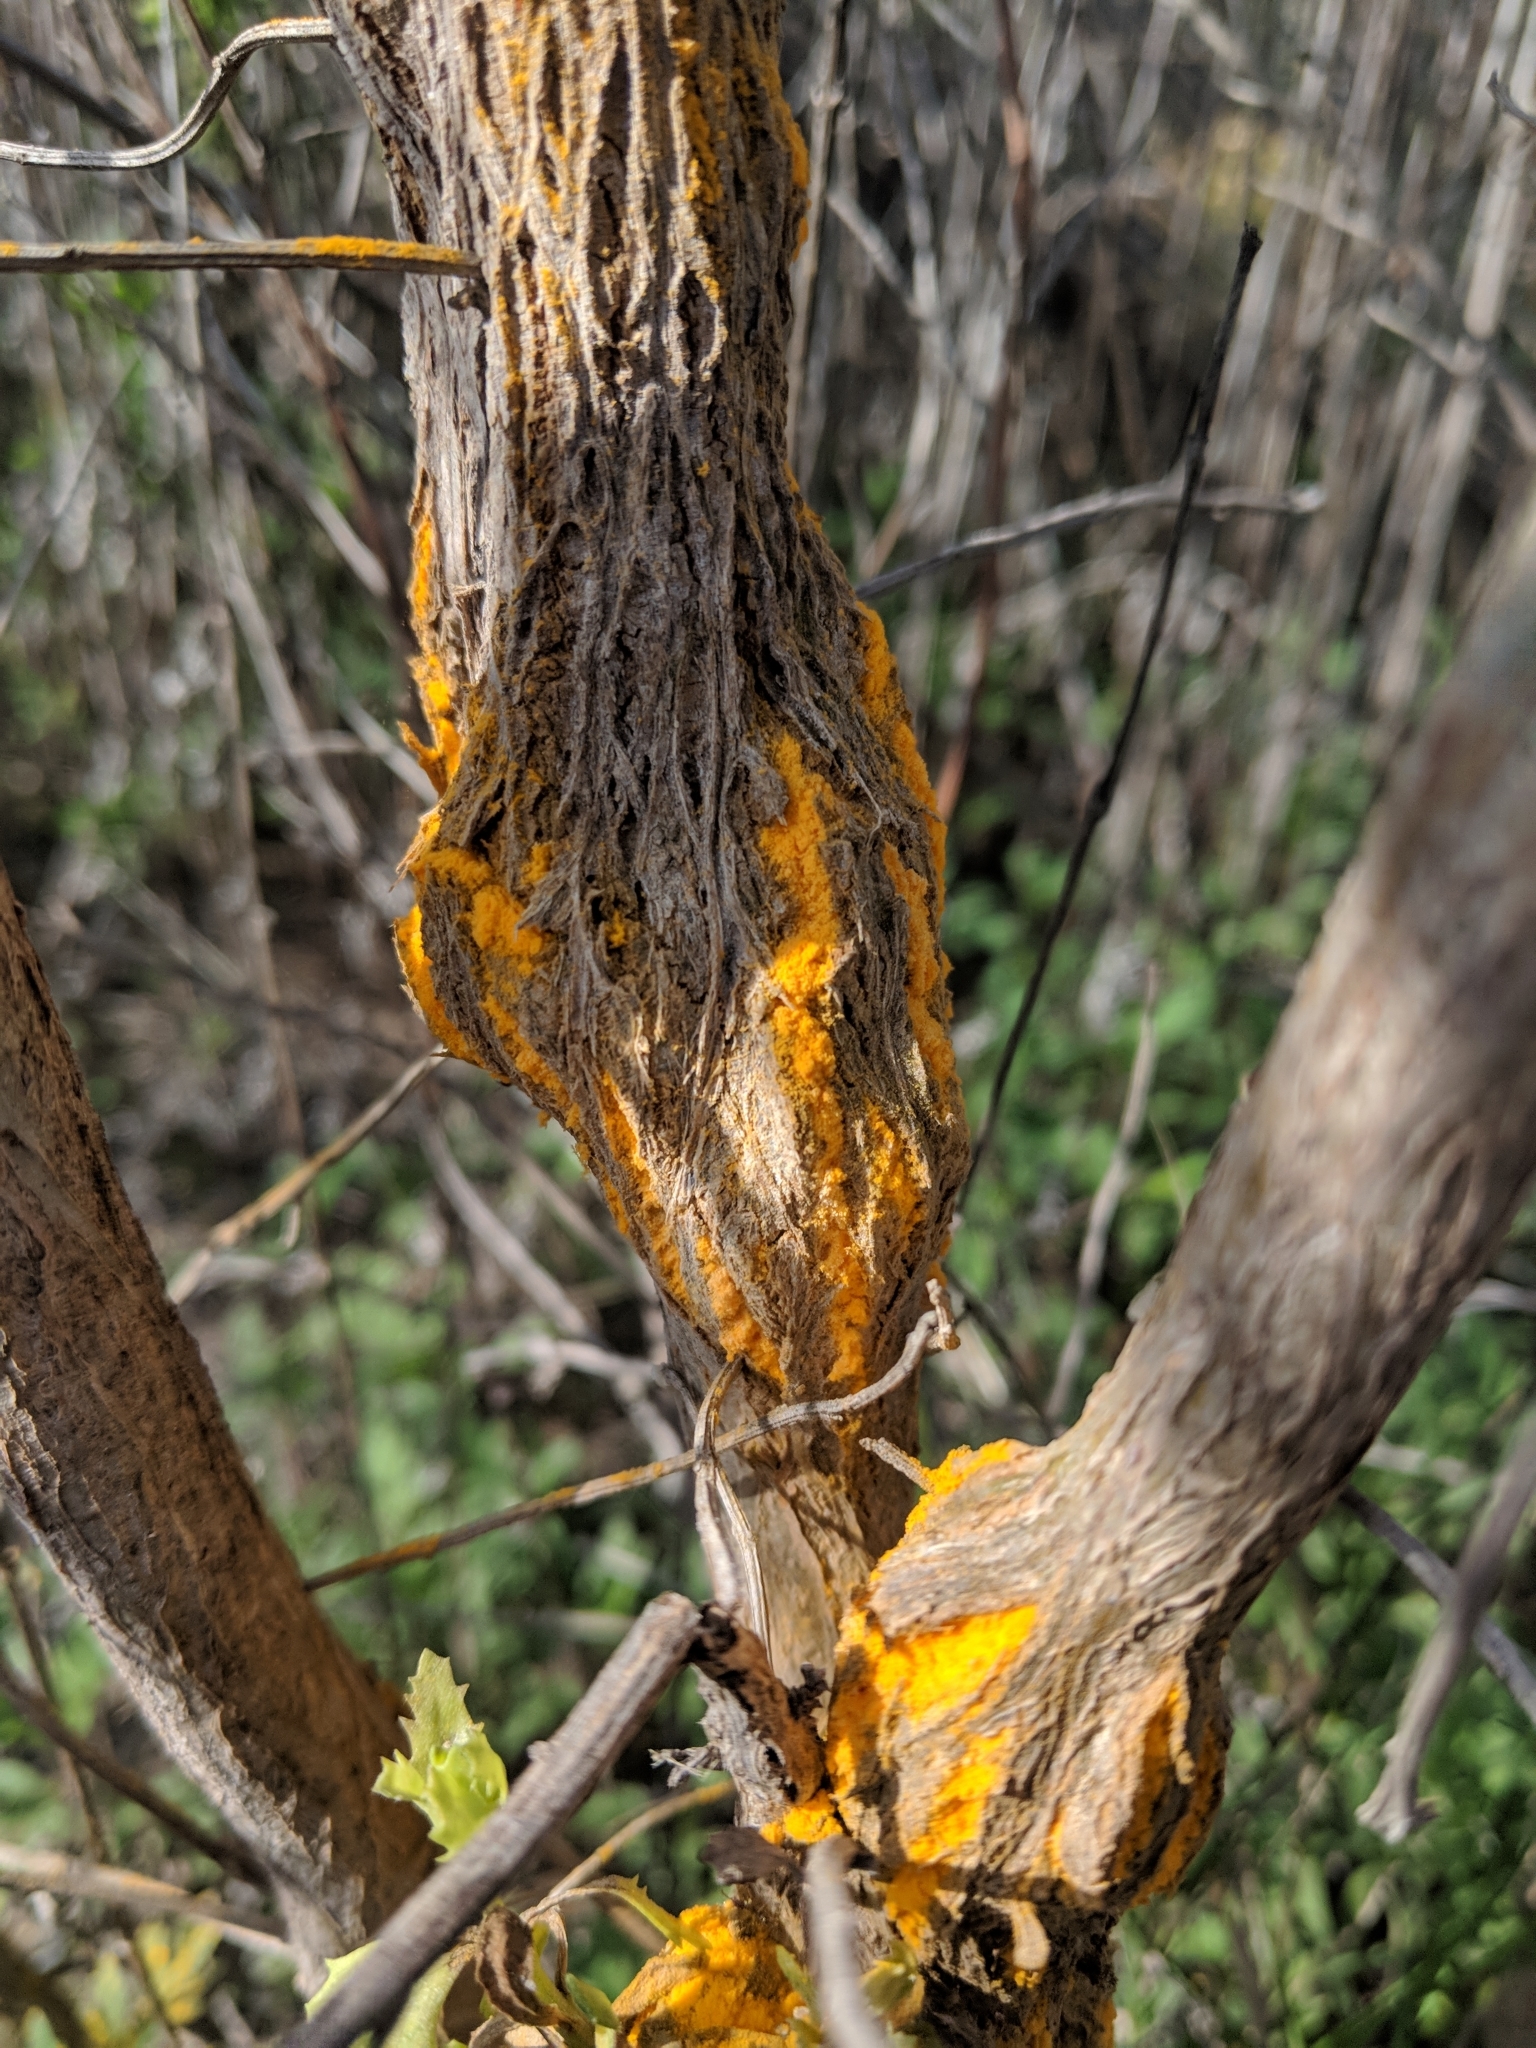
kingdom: Fungi
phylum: Basidiomycota
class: Pucciniomycetes
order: Pucciniales
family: Pucciniaceae
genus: Eriosporangium
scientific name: Eriosporangium evadens
